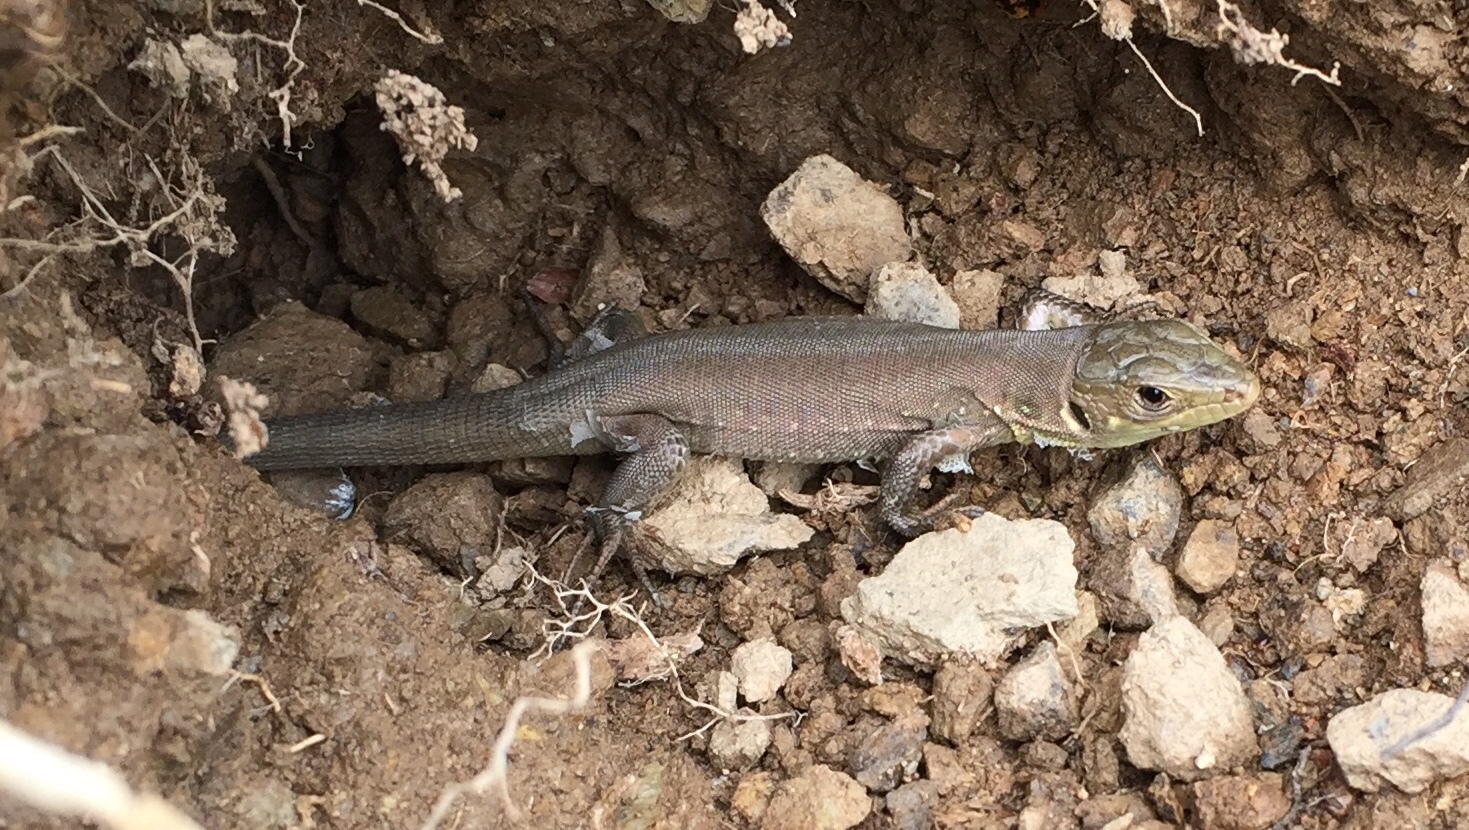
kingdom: Animalia
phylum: Chordata
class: Squamata
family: Lacertidae
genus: Lacerta
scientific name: Lacerta trilineata
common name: Balkan green lizard
